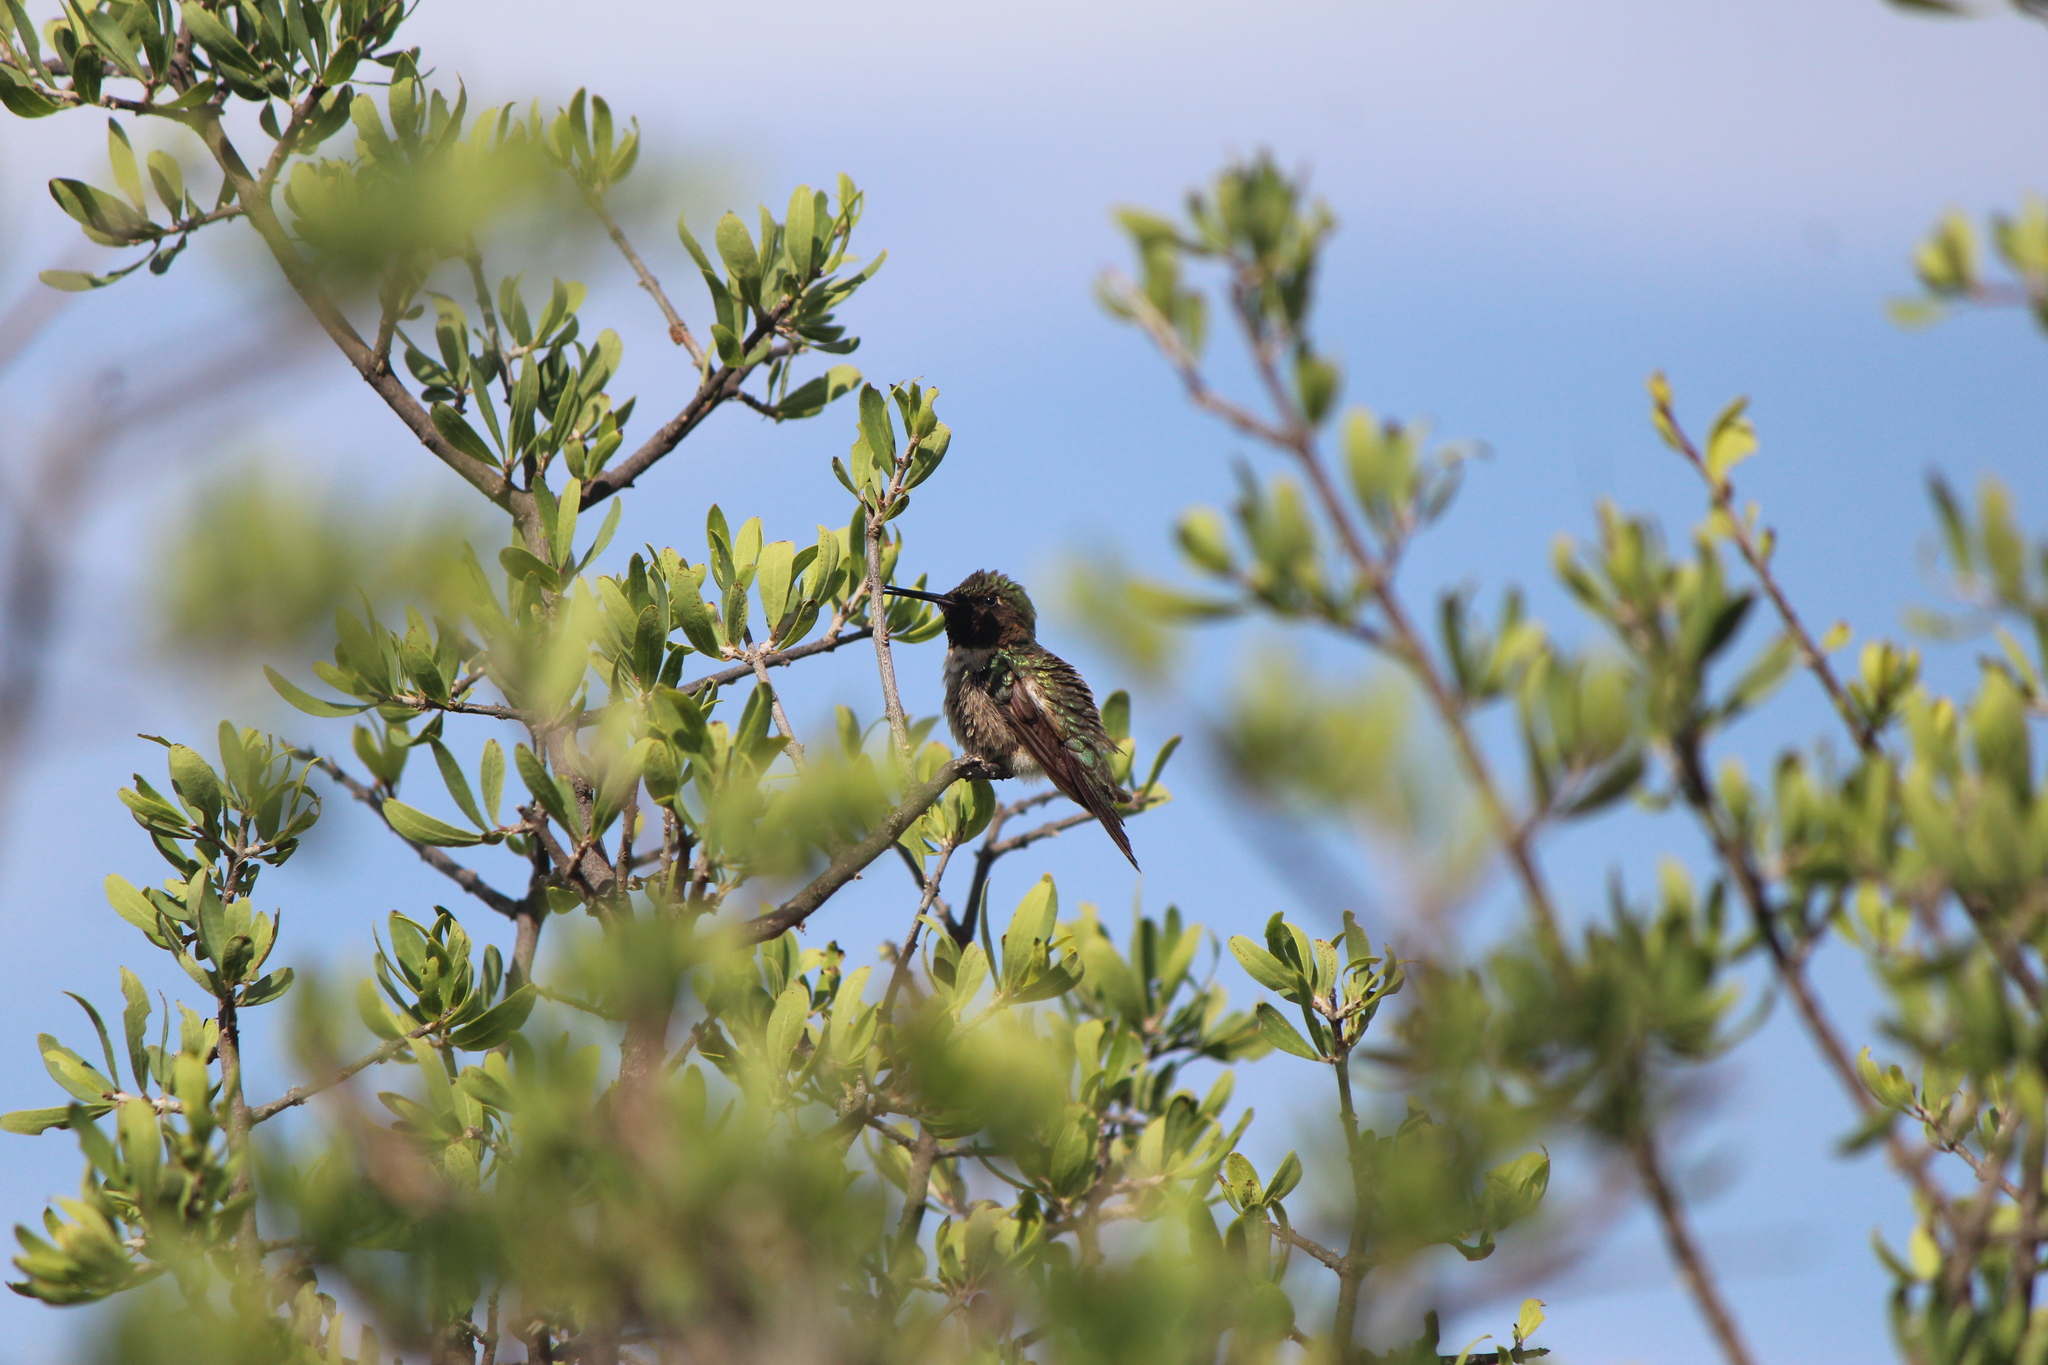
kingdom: Animalia
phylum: Chordata
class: Aves
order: Apodiformes
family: Trochilidae
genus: Selasphorus
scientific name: Selasphorus platycercus
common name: Broad-tailed hummingbird
